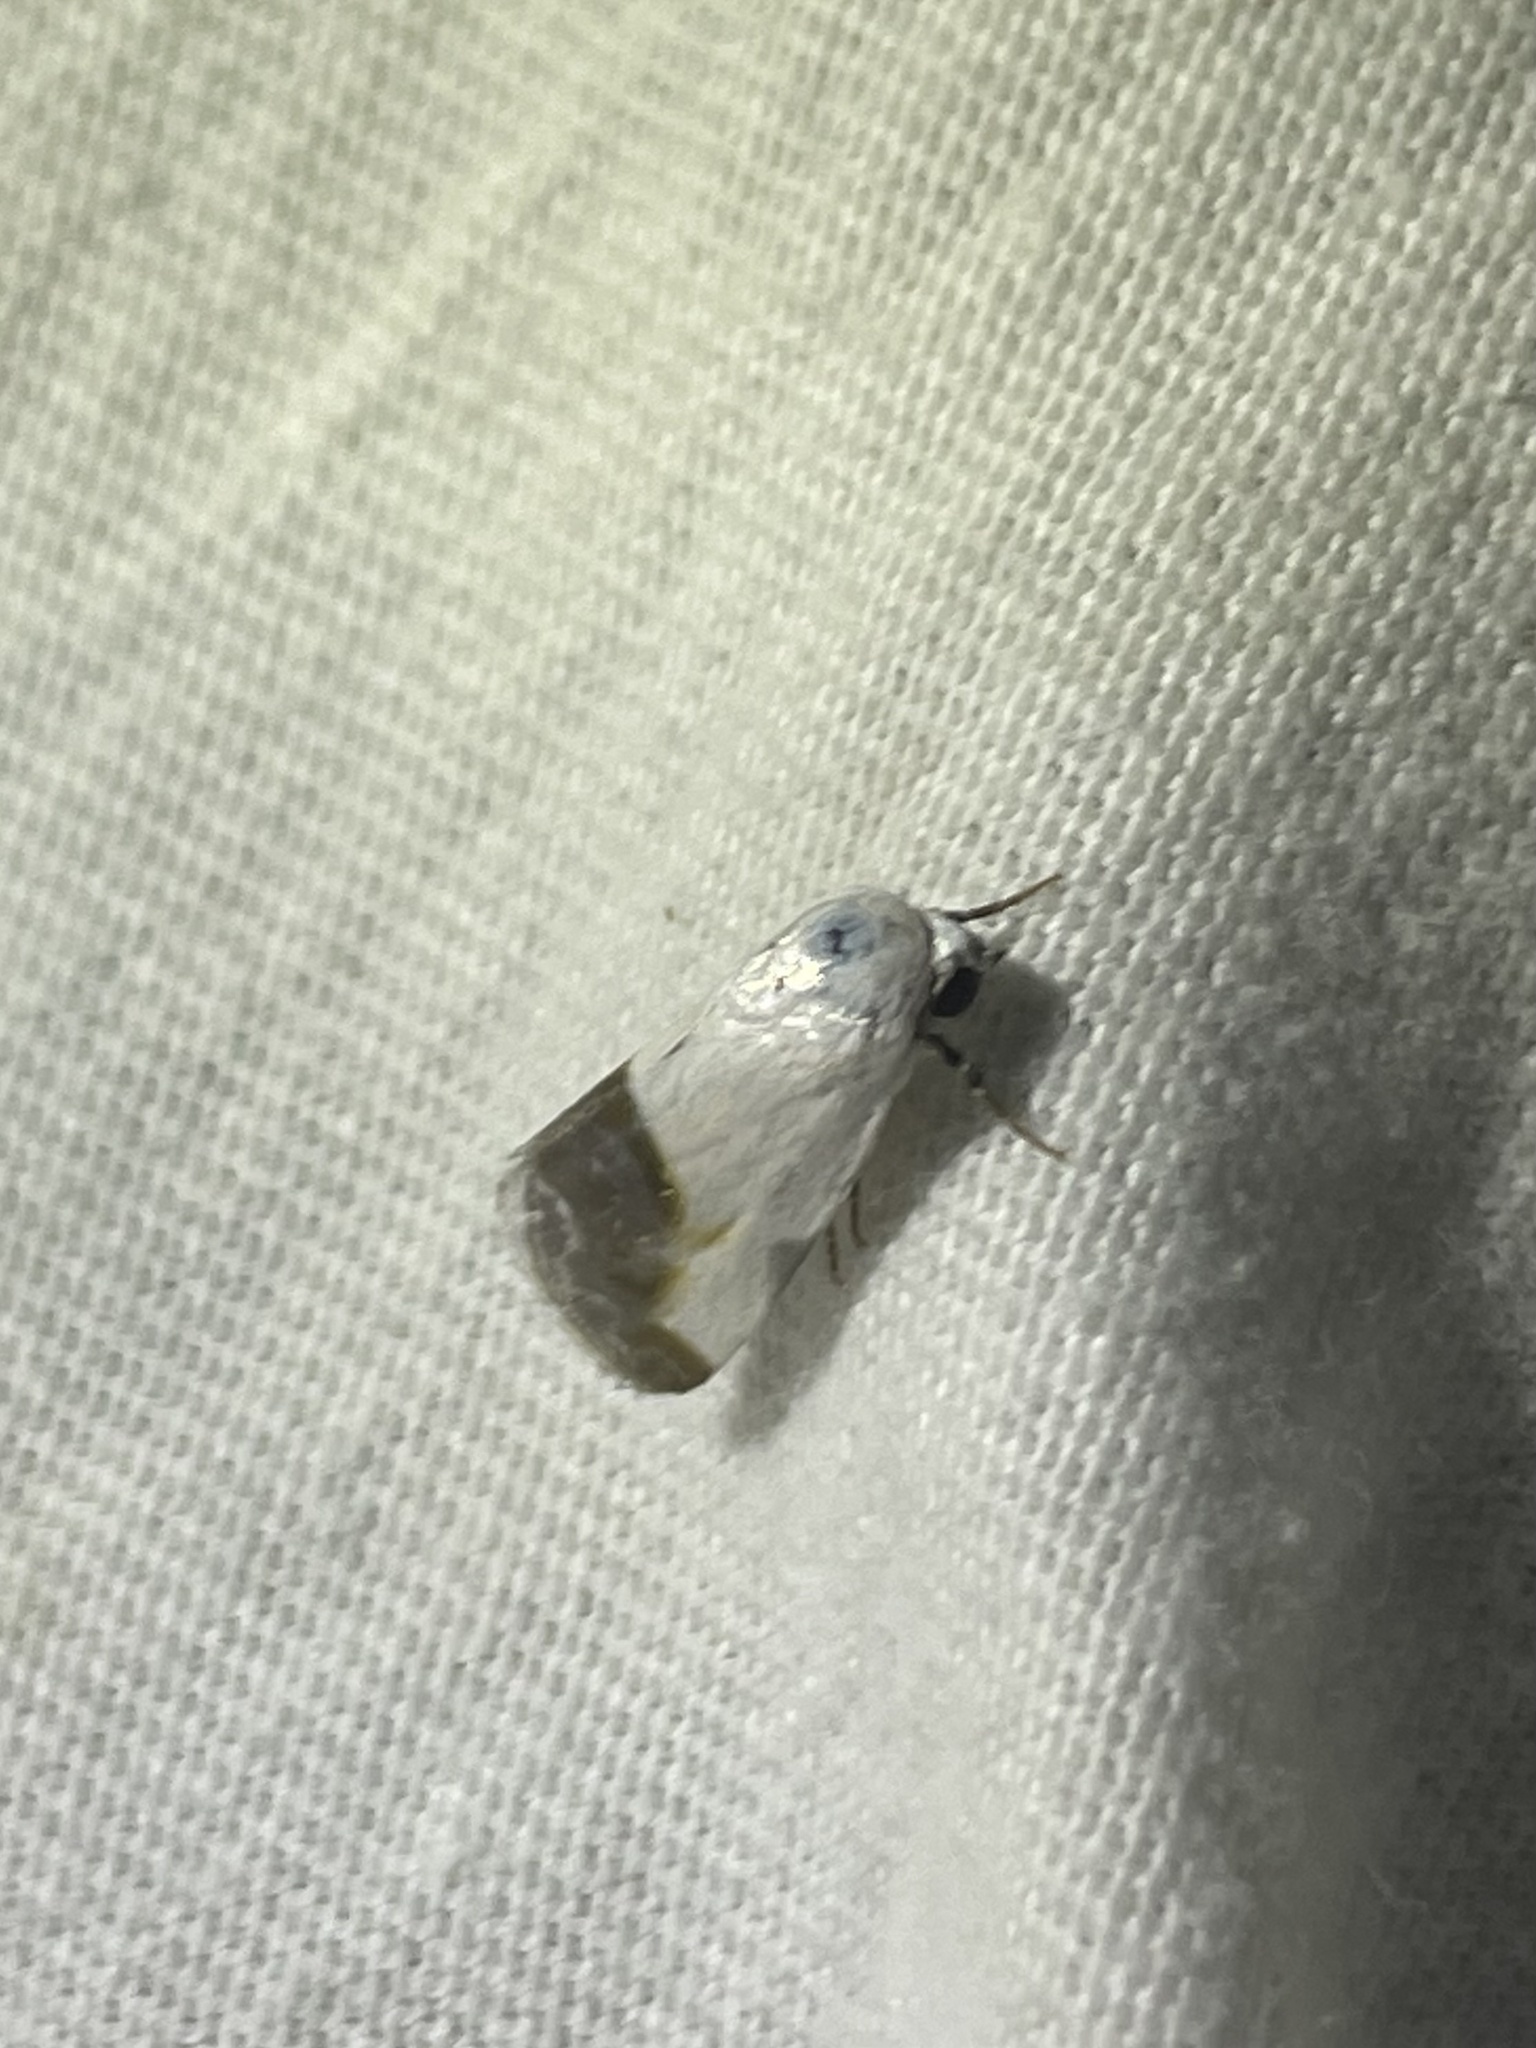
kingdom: Animalia
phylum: Arthropoda
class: Insecta
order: Lepidoptera
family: Noctuidae
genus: Acontia
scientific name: Acontia cretata
